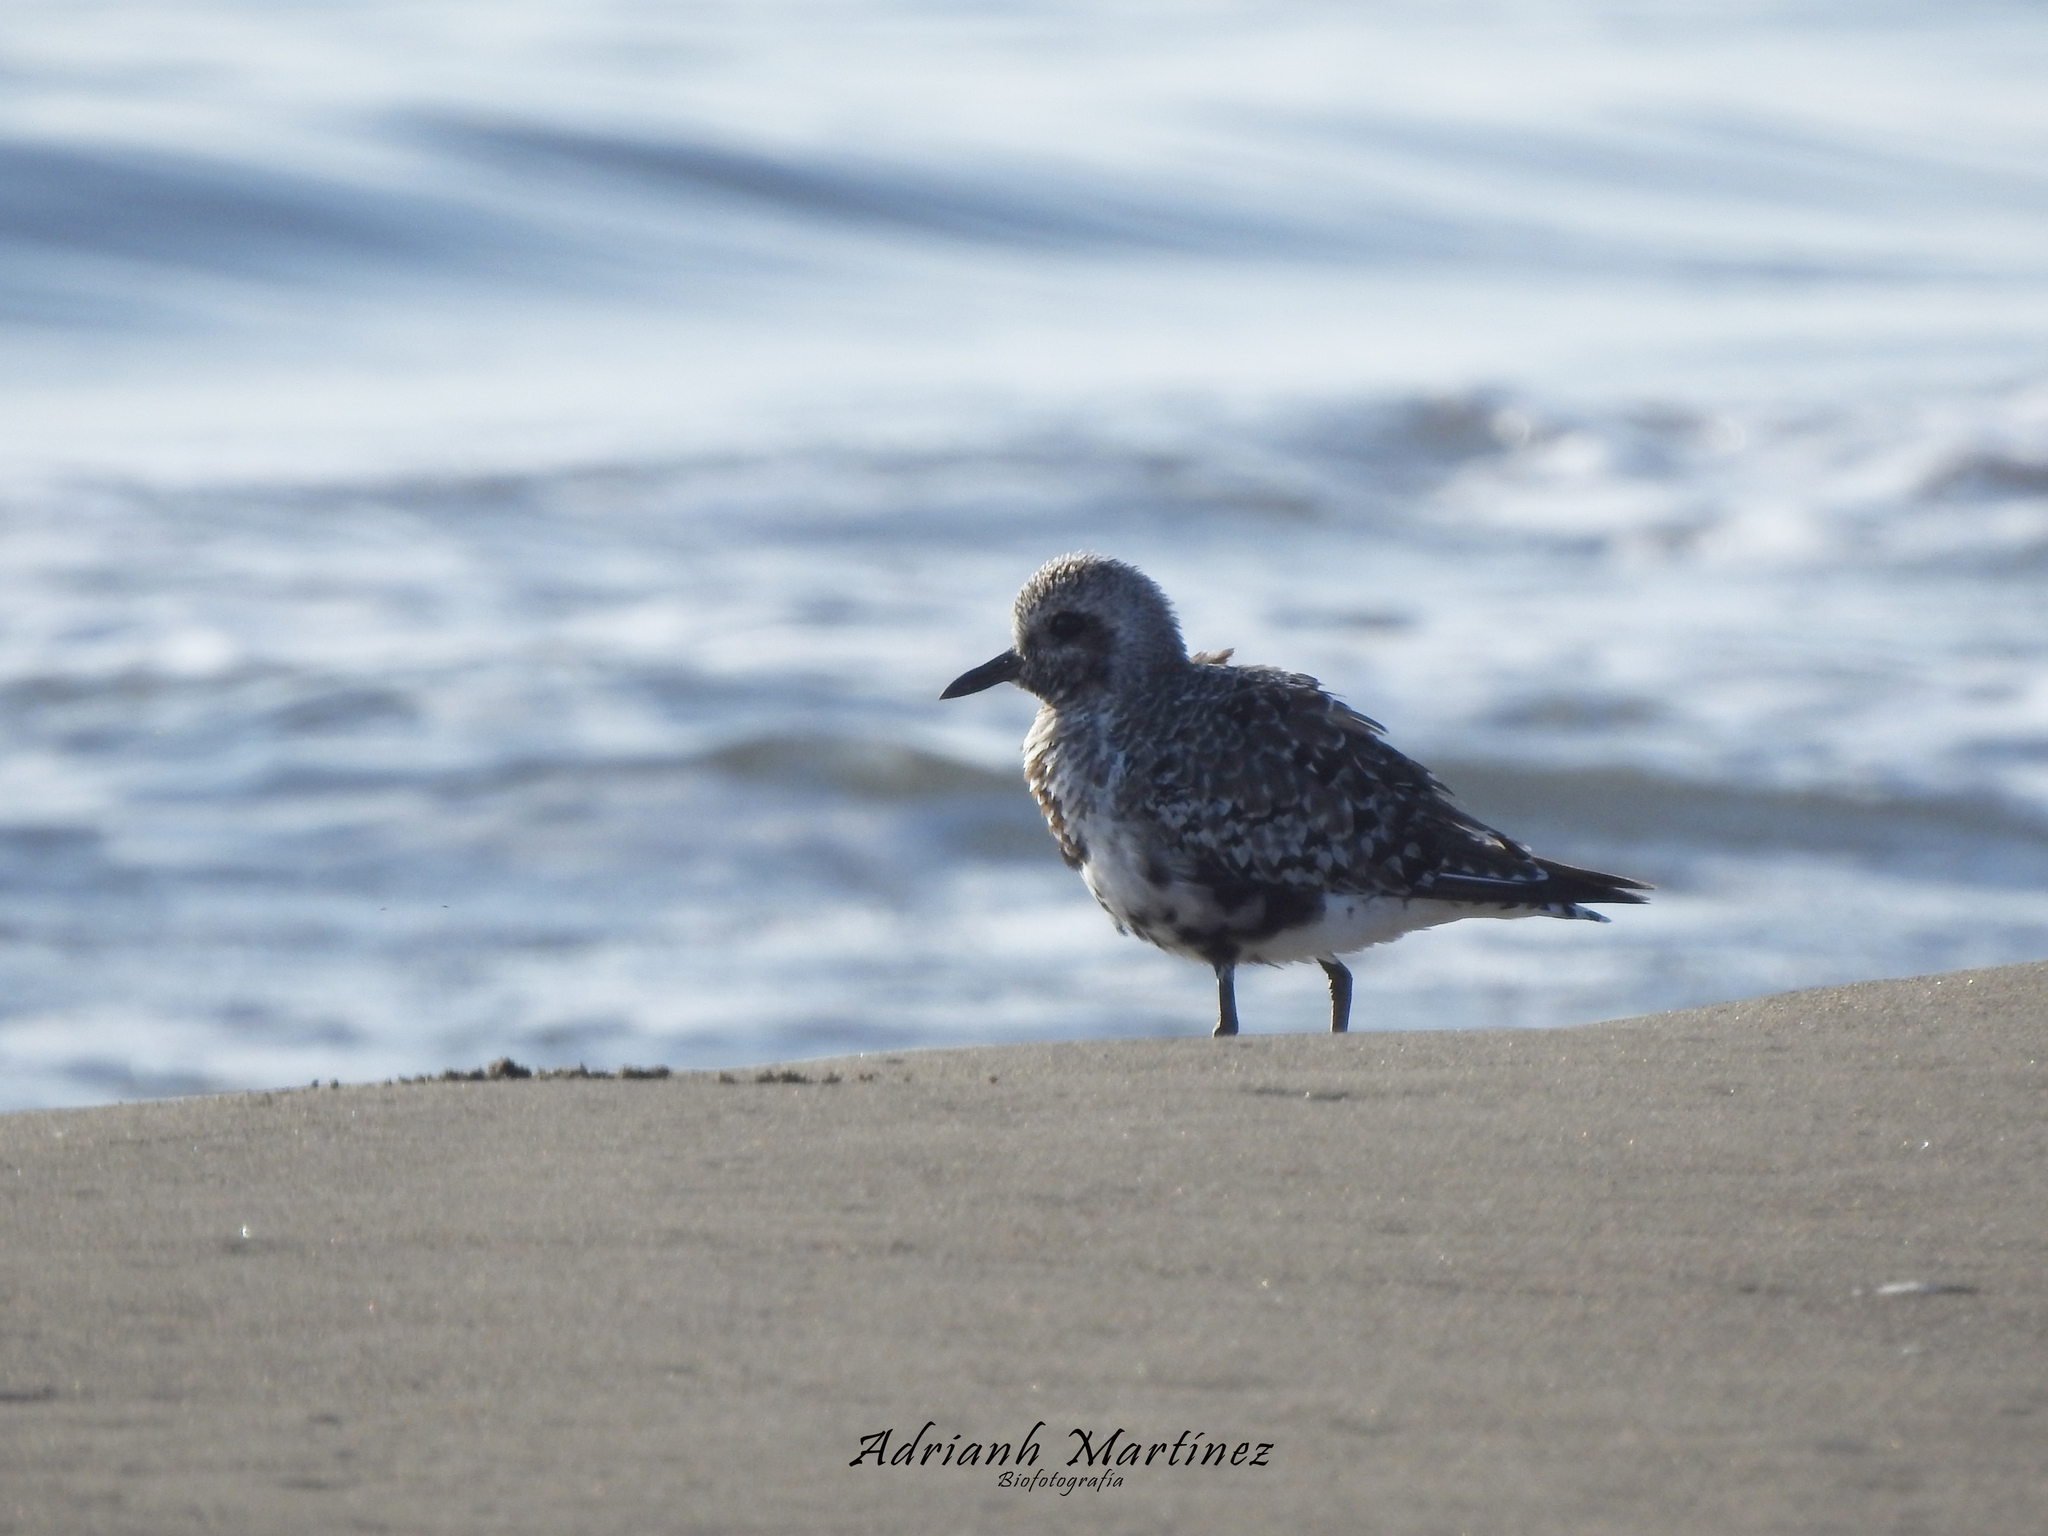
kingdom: Animalia
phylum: Chordata
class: Aves
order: Charadriiformes
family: Charadriidae
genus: Pluvialis
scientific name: Pluvialis squatarola
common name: Grey plover
